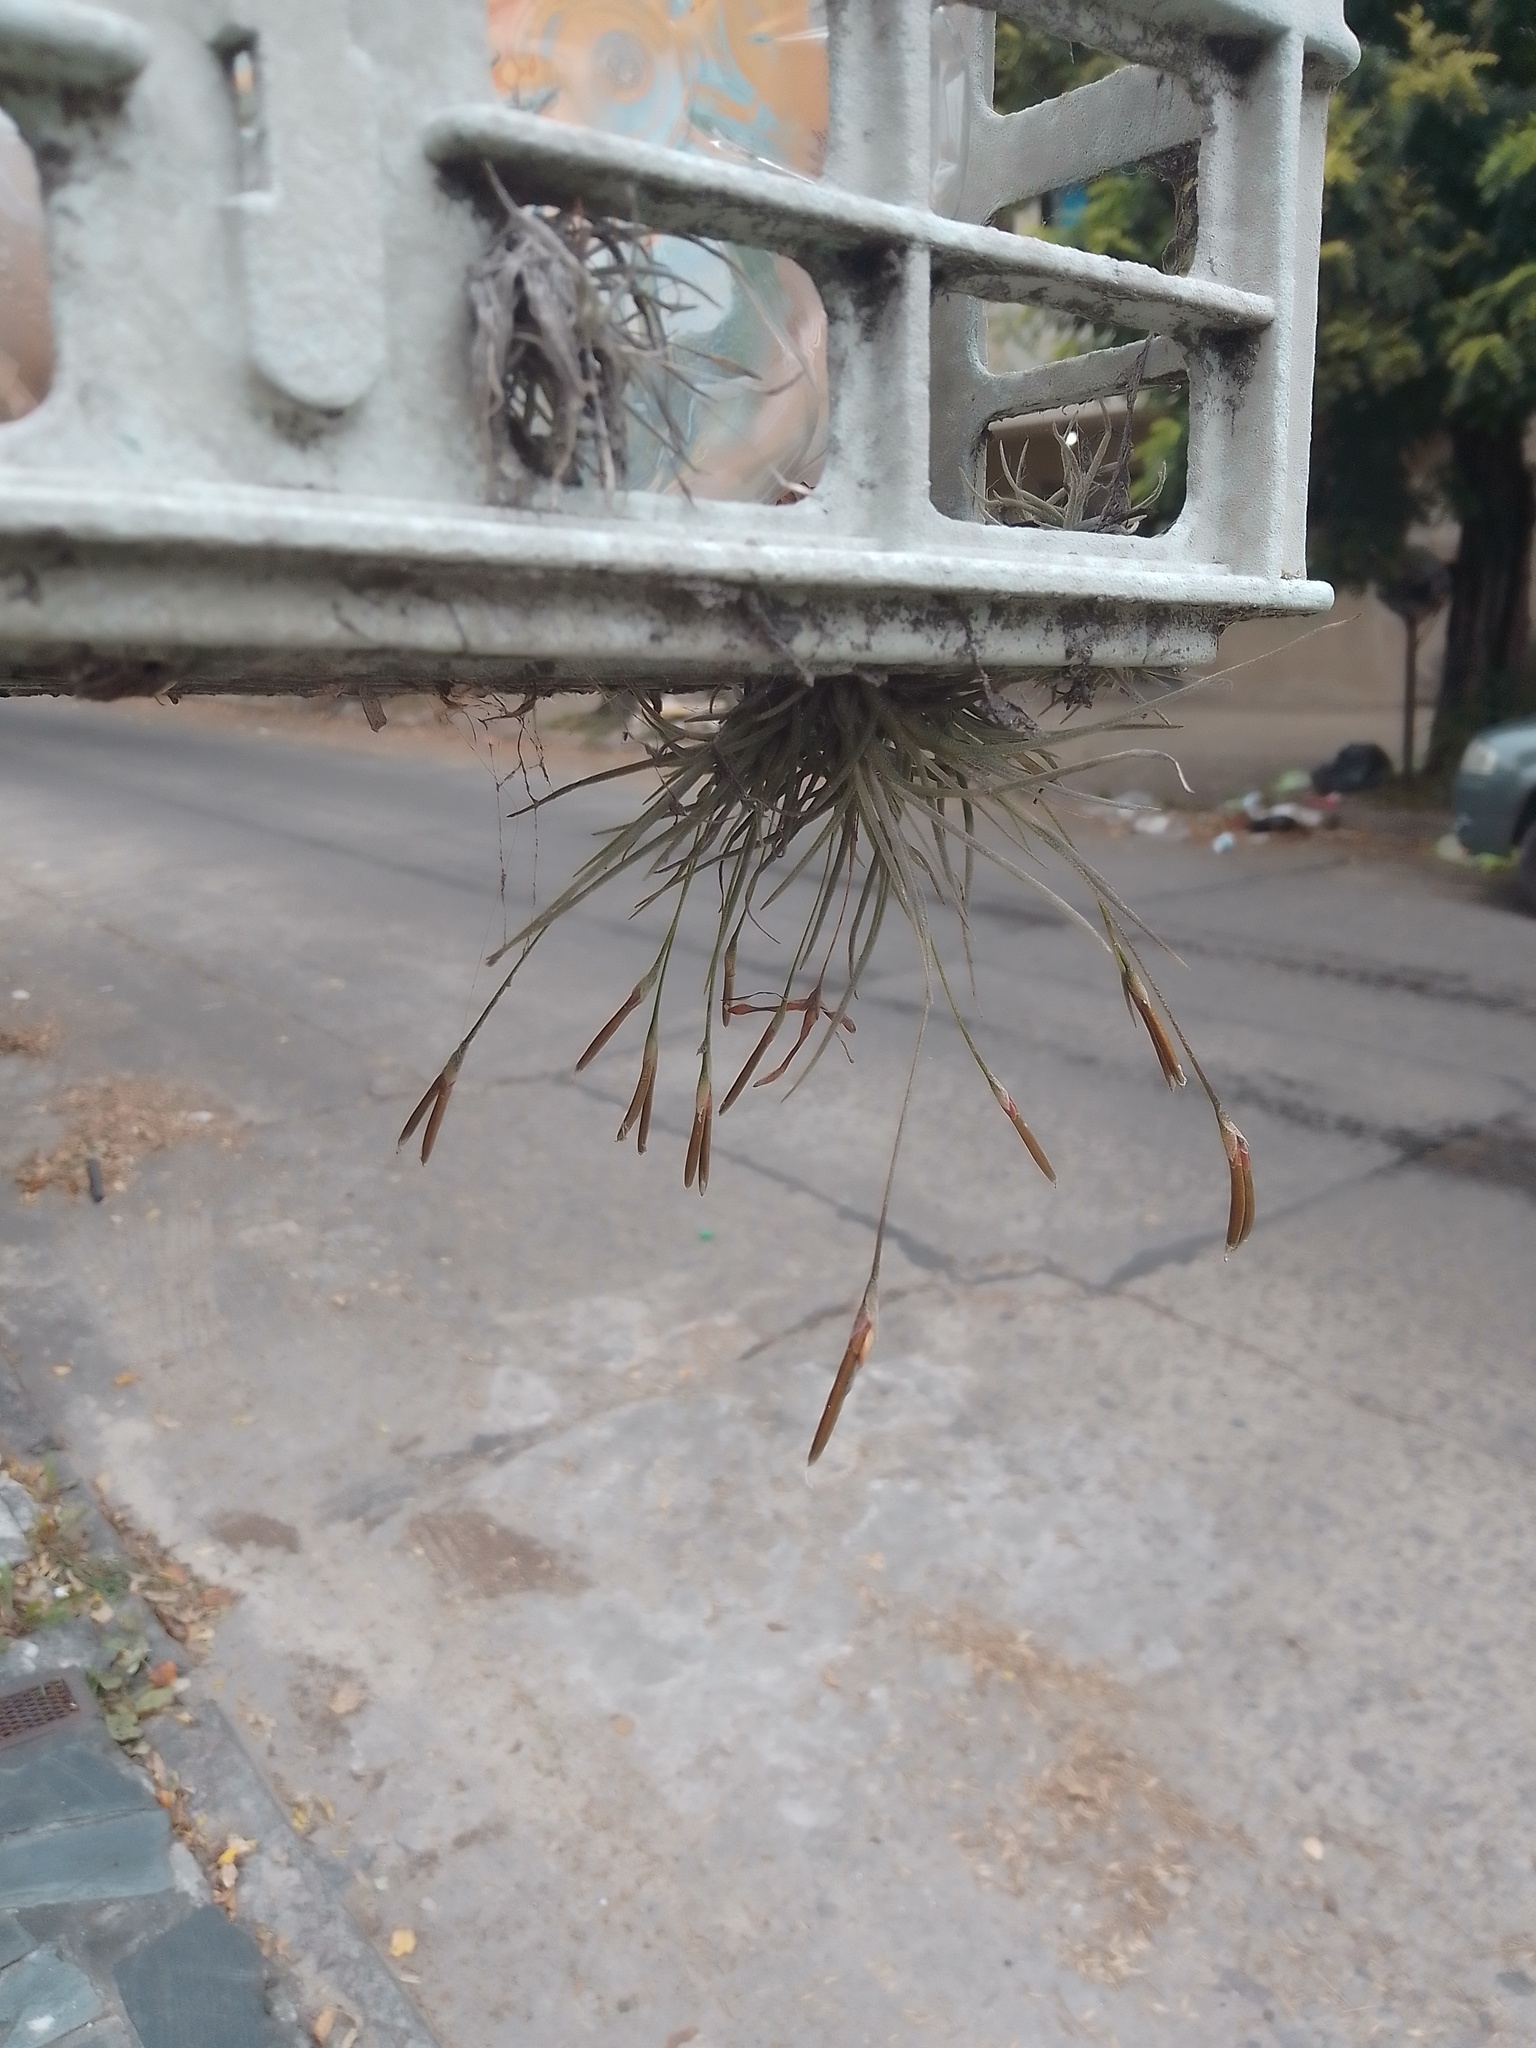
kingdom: Plantae
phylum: Tracheophyta
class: Liliopsida
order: Poales
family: Bromeliaceae
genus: Tillandsia
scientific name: Tillandsia recurvata
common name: Small ballmoss
